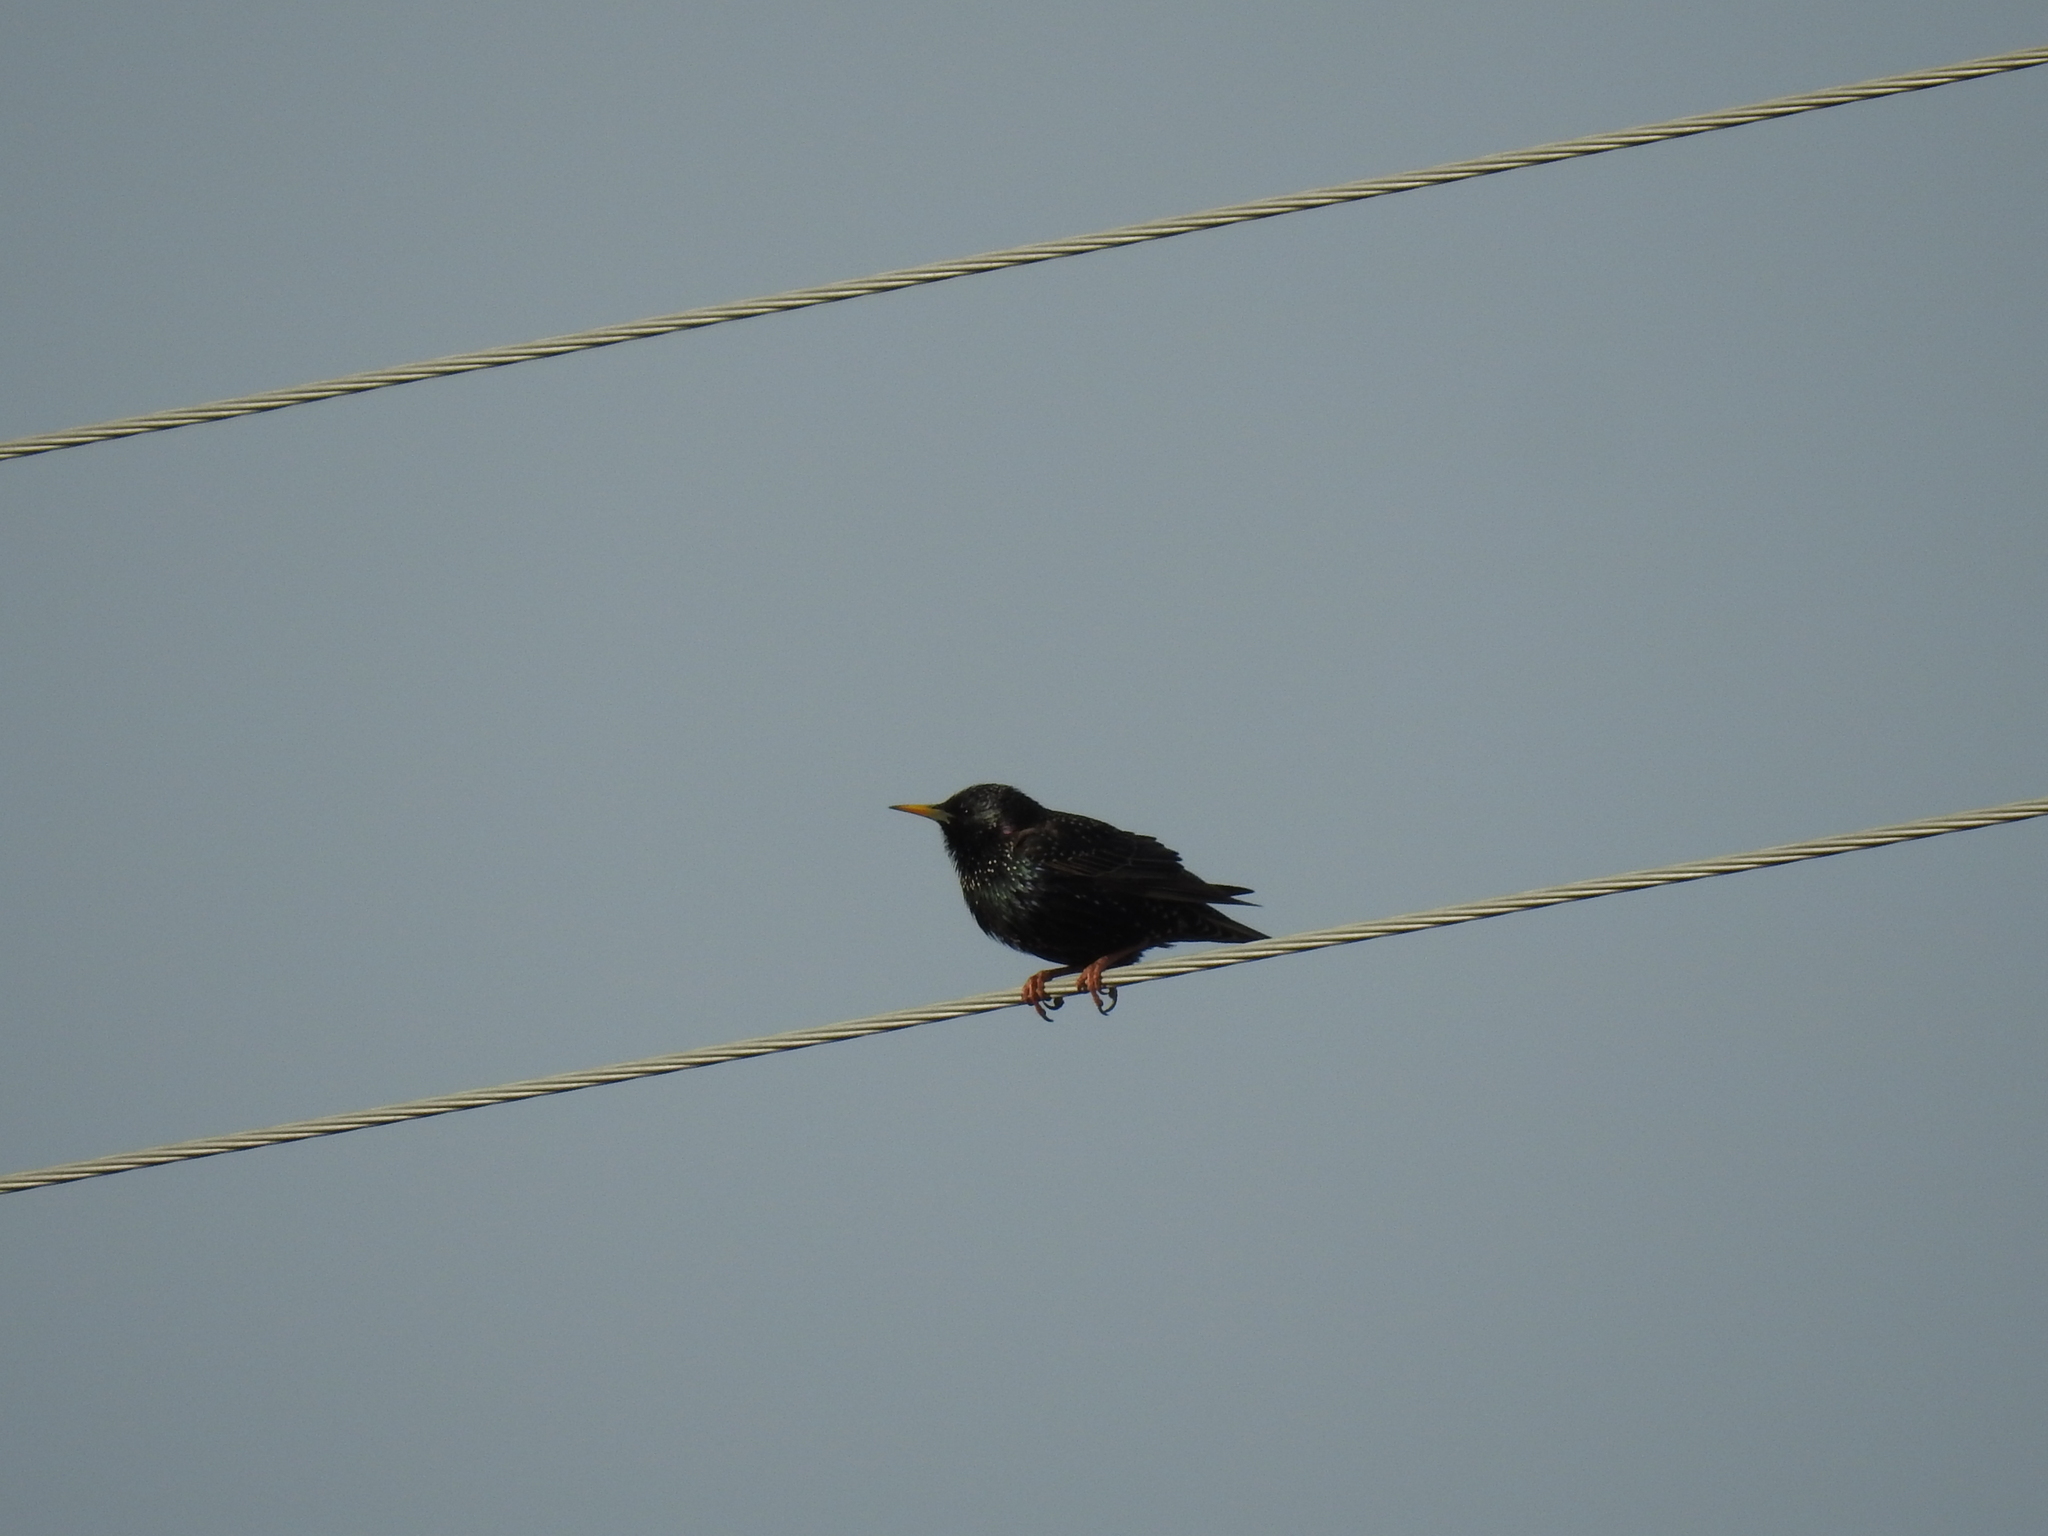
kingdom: Animalia
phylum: Chordata
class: Aves
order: Passeriformes
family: Sturnidae
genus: Sturnus
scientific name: Sturnus vulgaris
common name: Common starling
